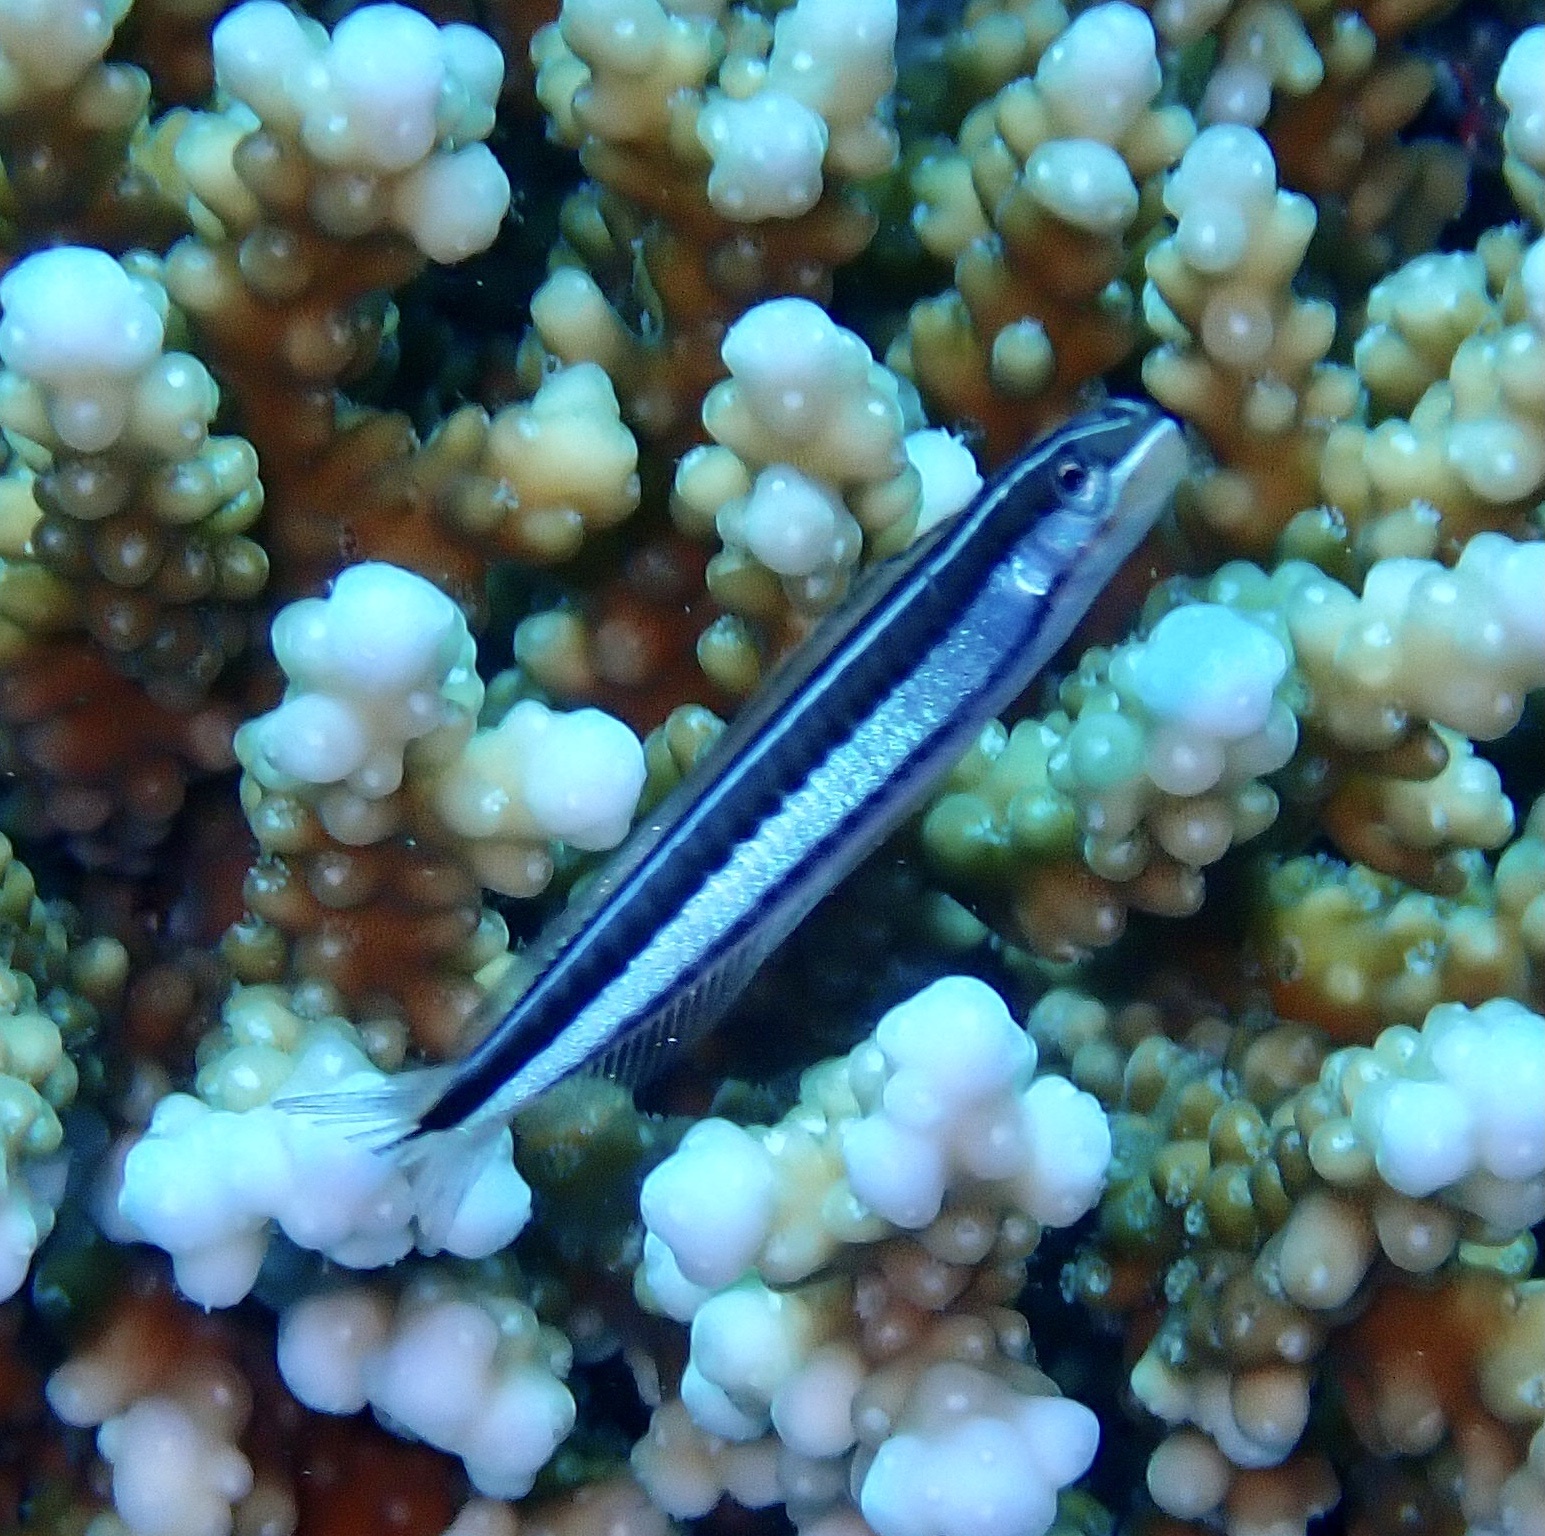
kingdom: Animalia
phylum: Chordata
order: Perciformes
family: Blenniidae
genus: Plagiotremus
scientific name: Plagiotremus tapeinosoma
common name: Hit and run blenny
